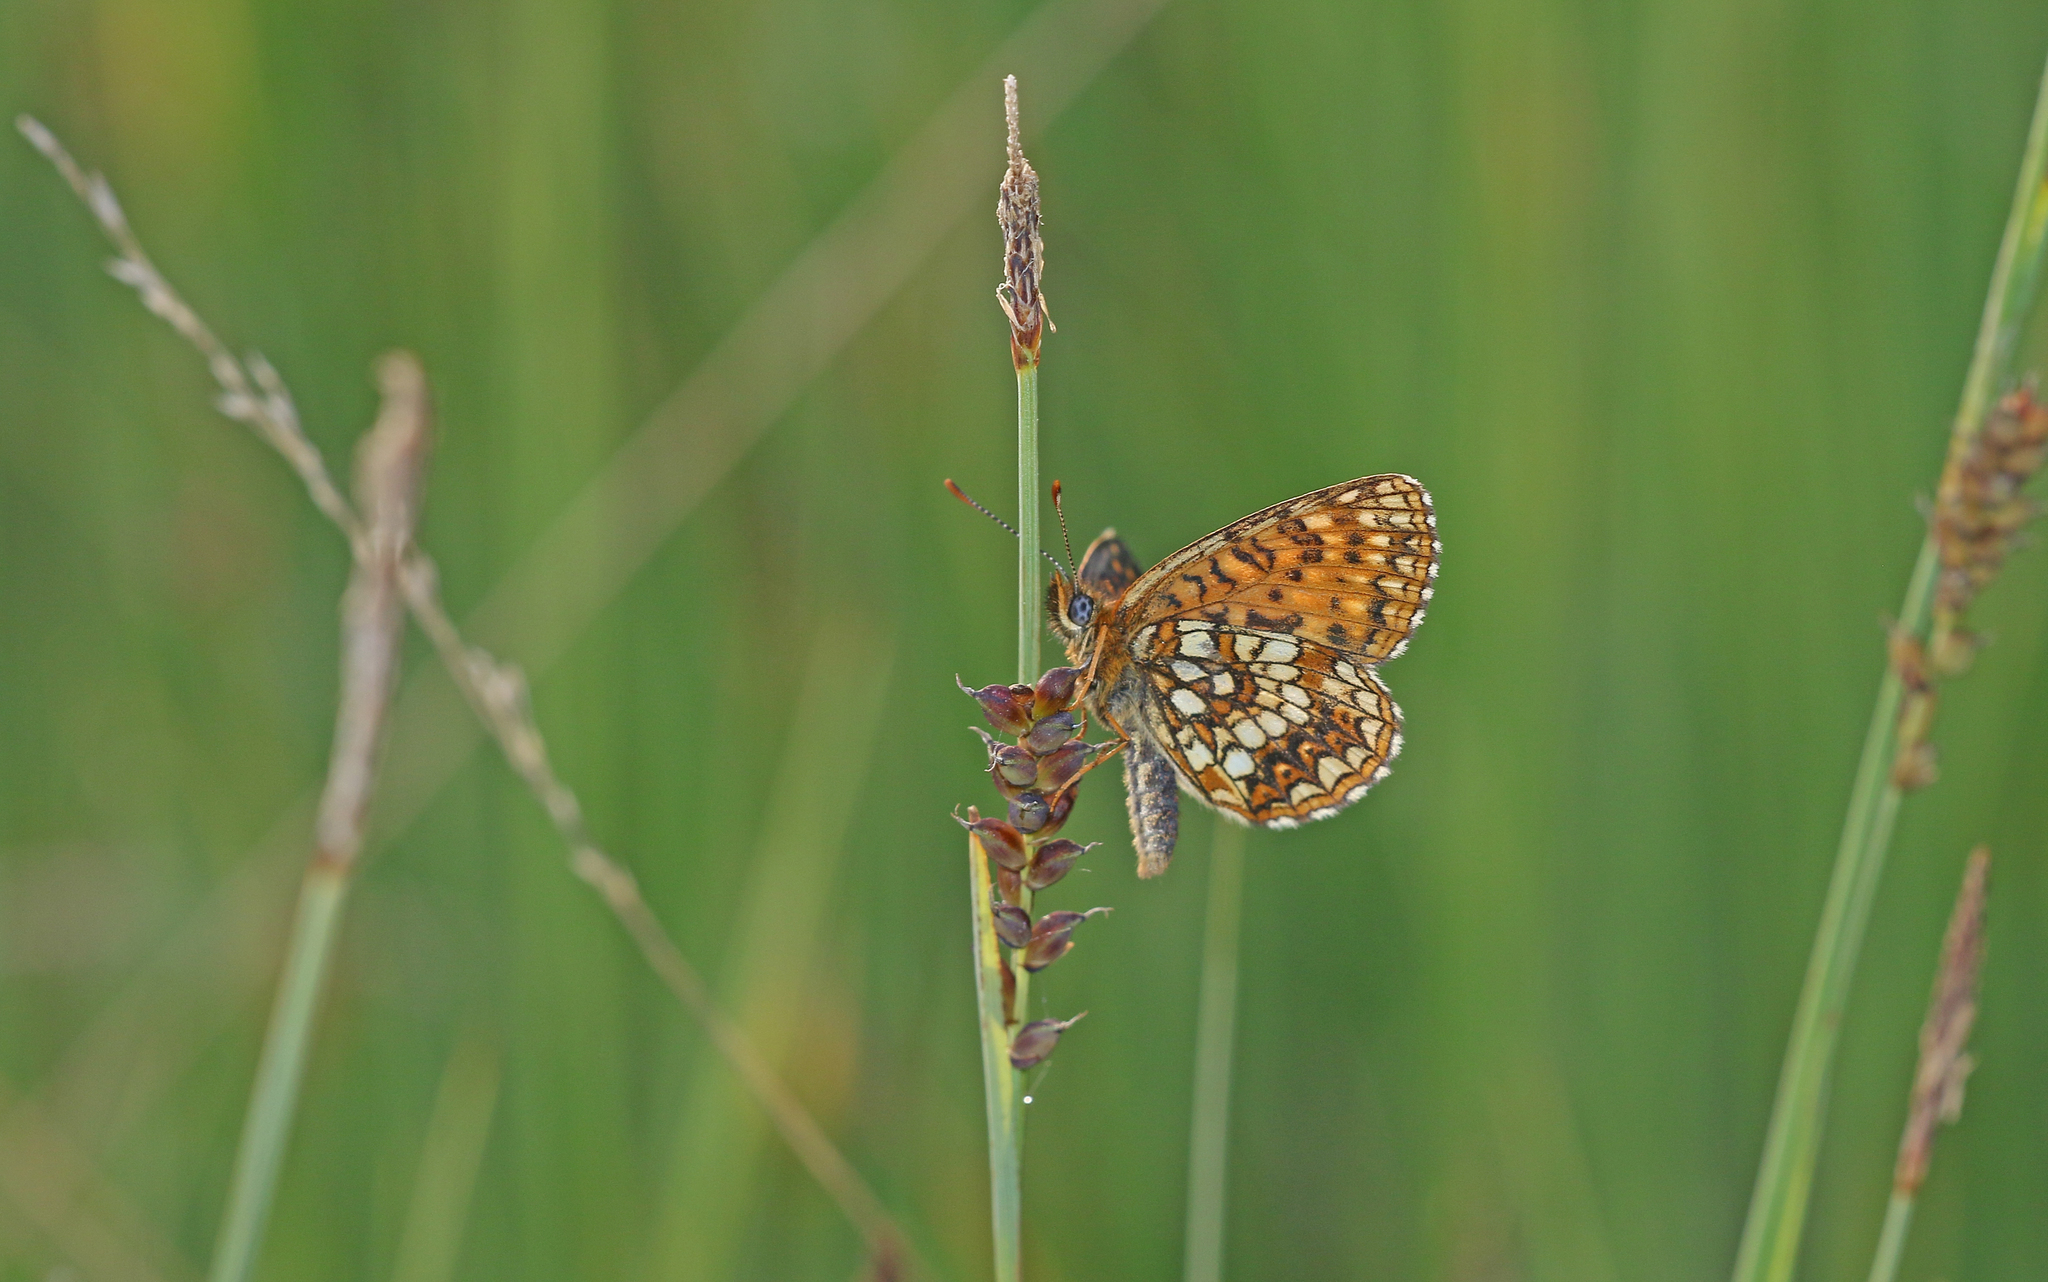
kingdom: Animalia
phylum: Arthropoda
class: Insecta
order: Lepidoptera
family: Nymphalidae
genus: Melitaea
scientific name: Melitaea diamina
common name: False heath fritillary
